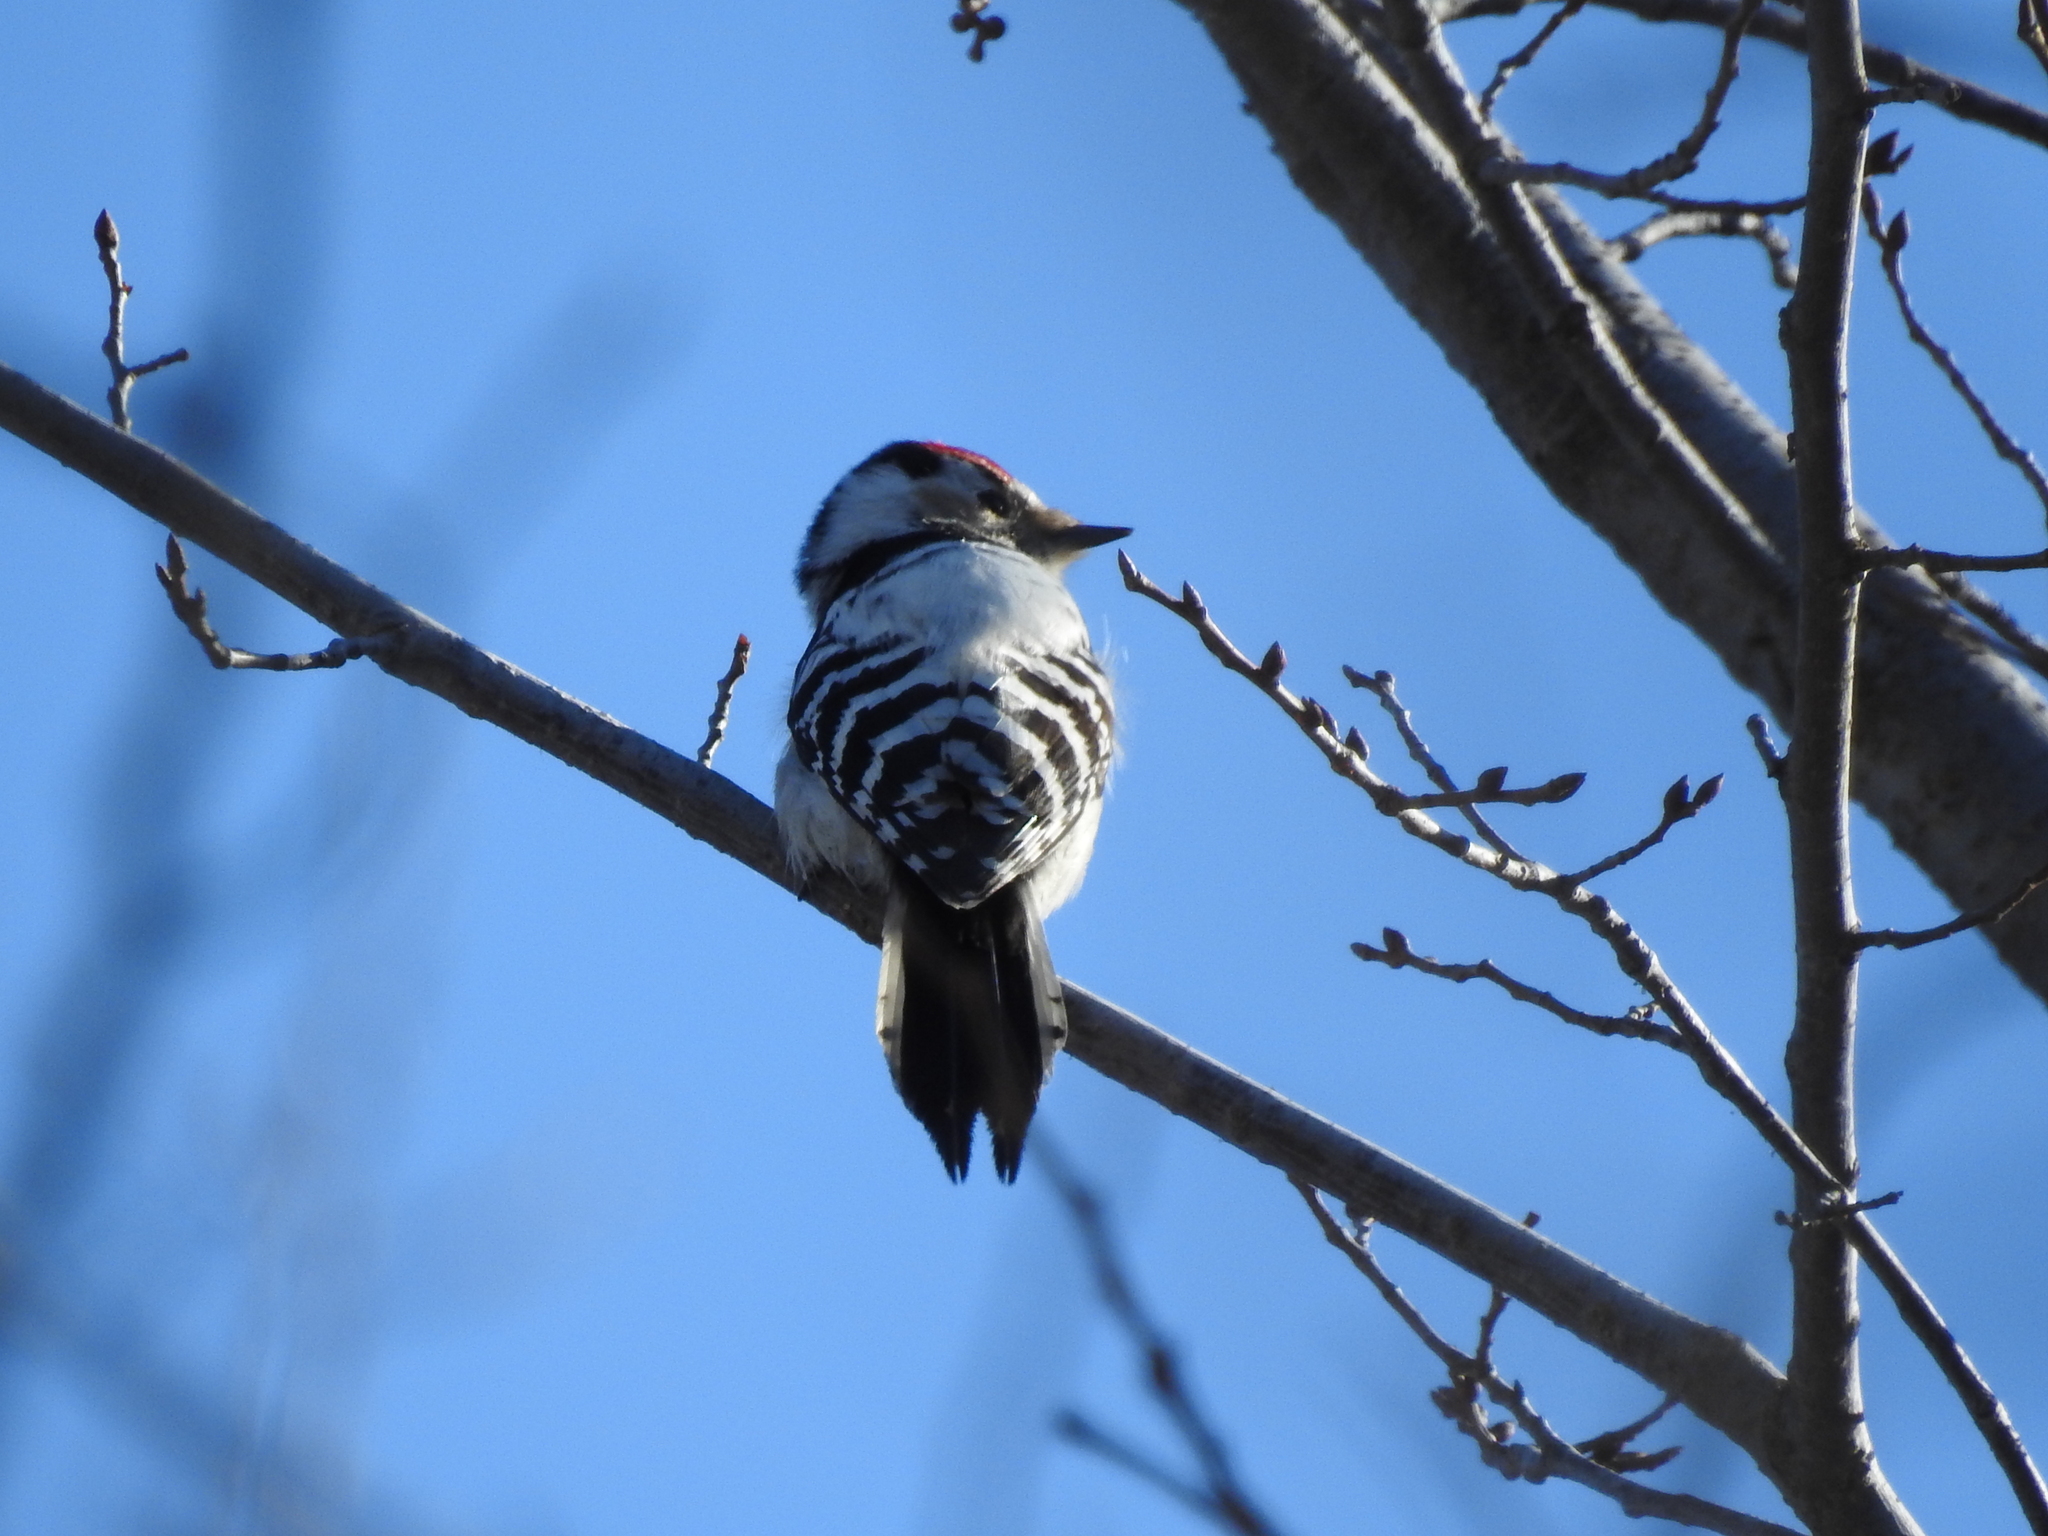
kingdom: Animalia
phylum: Chordata
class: Aves
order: Piciformes
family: Picidae
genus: Dryobates
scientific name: Dryobates minor
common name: Lesser spotted woodpecker
